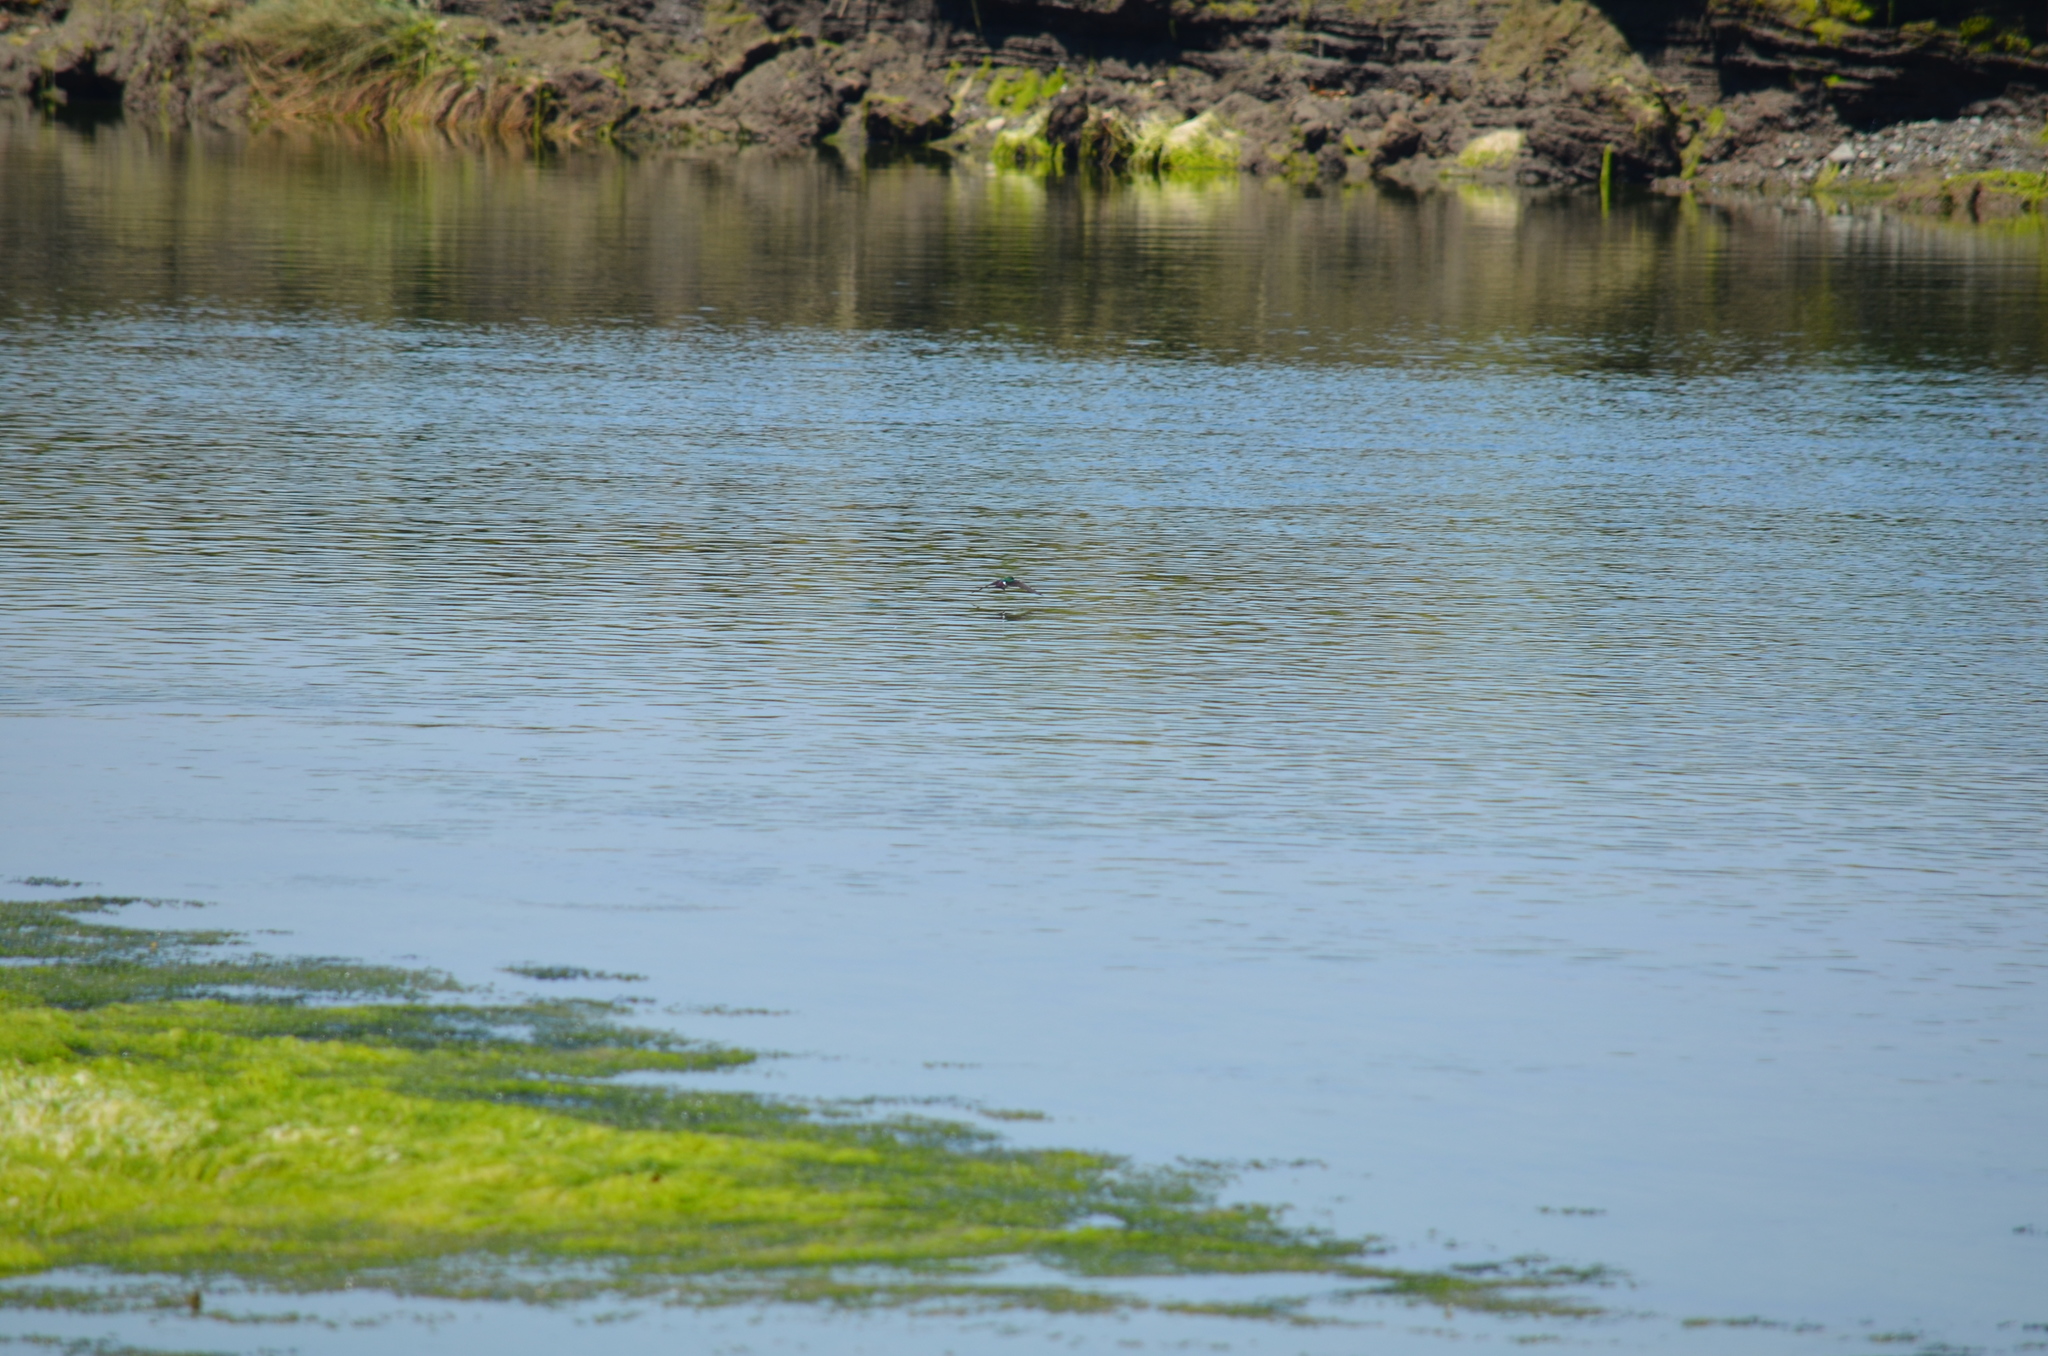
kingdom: Animalia
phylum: Chordata
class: Aves
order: Passeriformes
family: Hirundinidae
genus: Tachycineta
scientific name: Tachycineta thalassina
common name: Violet-green swallow
